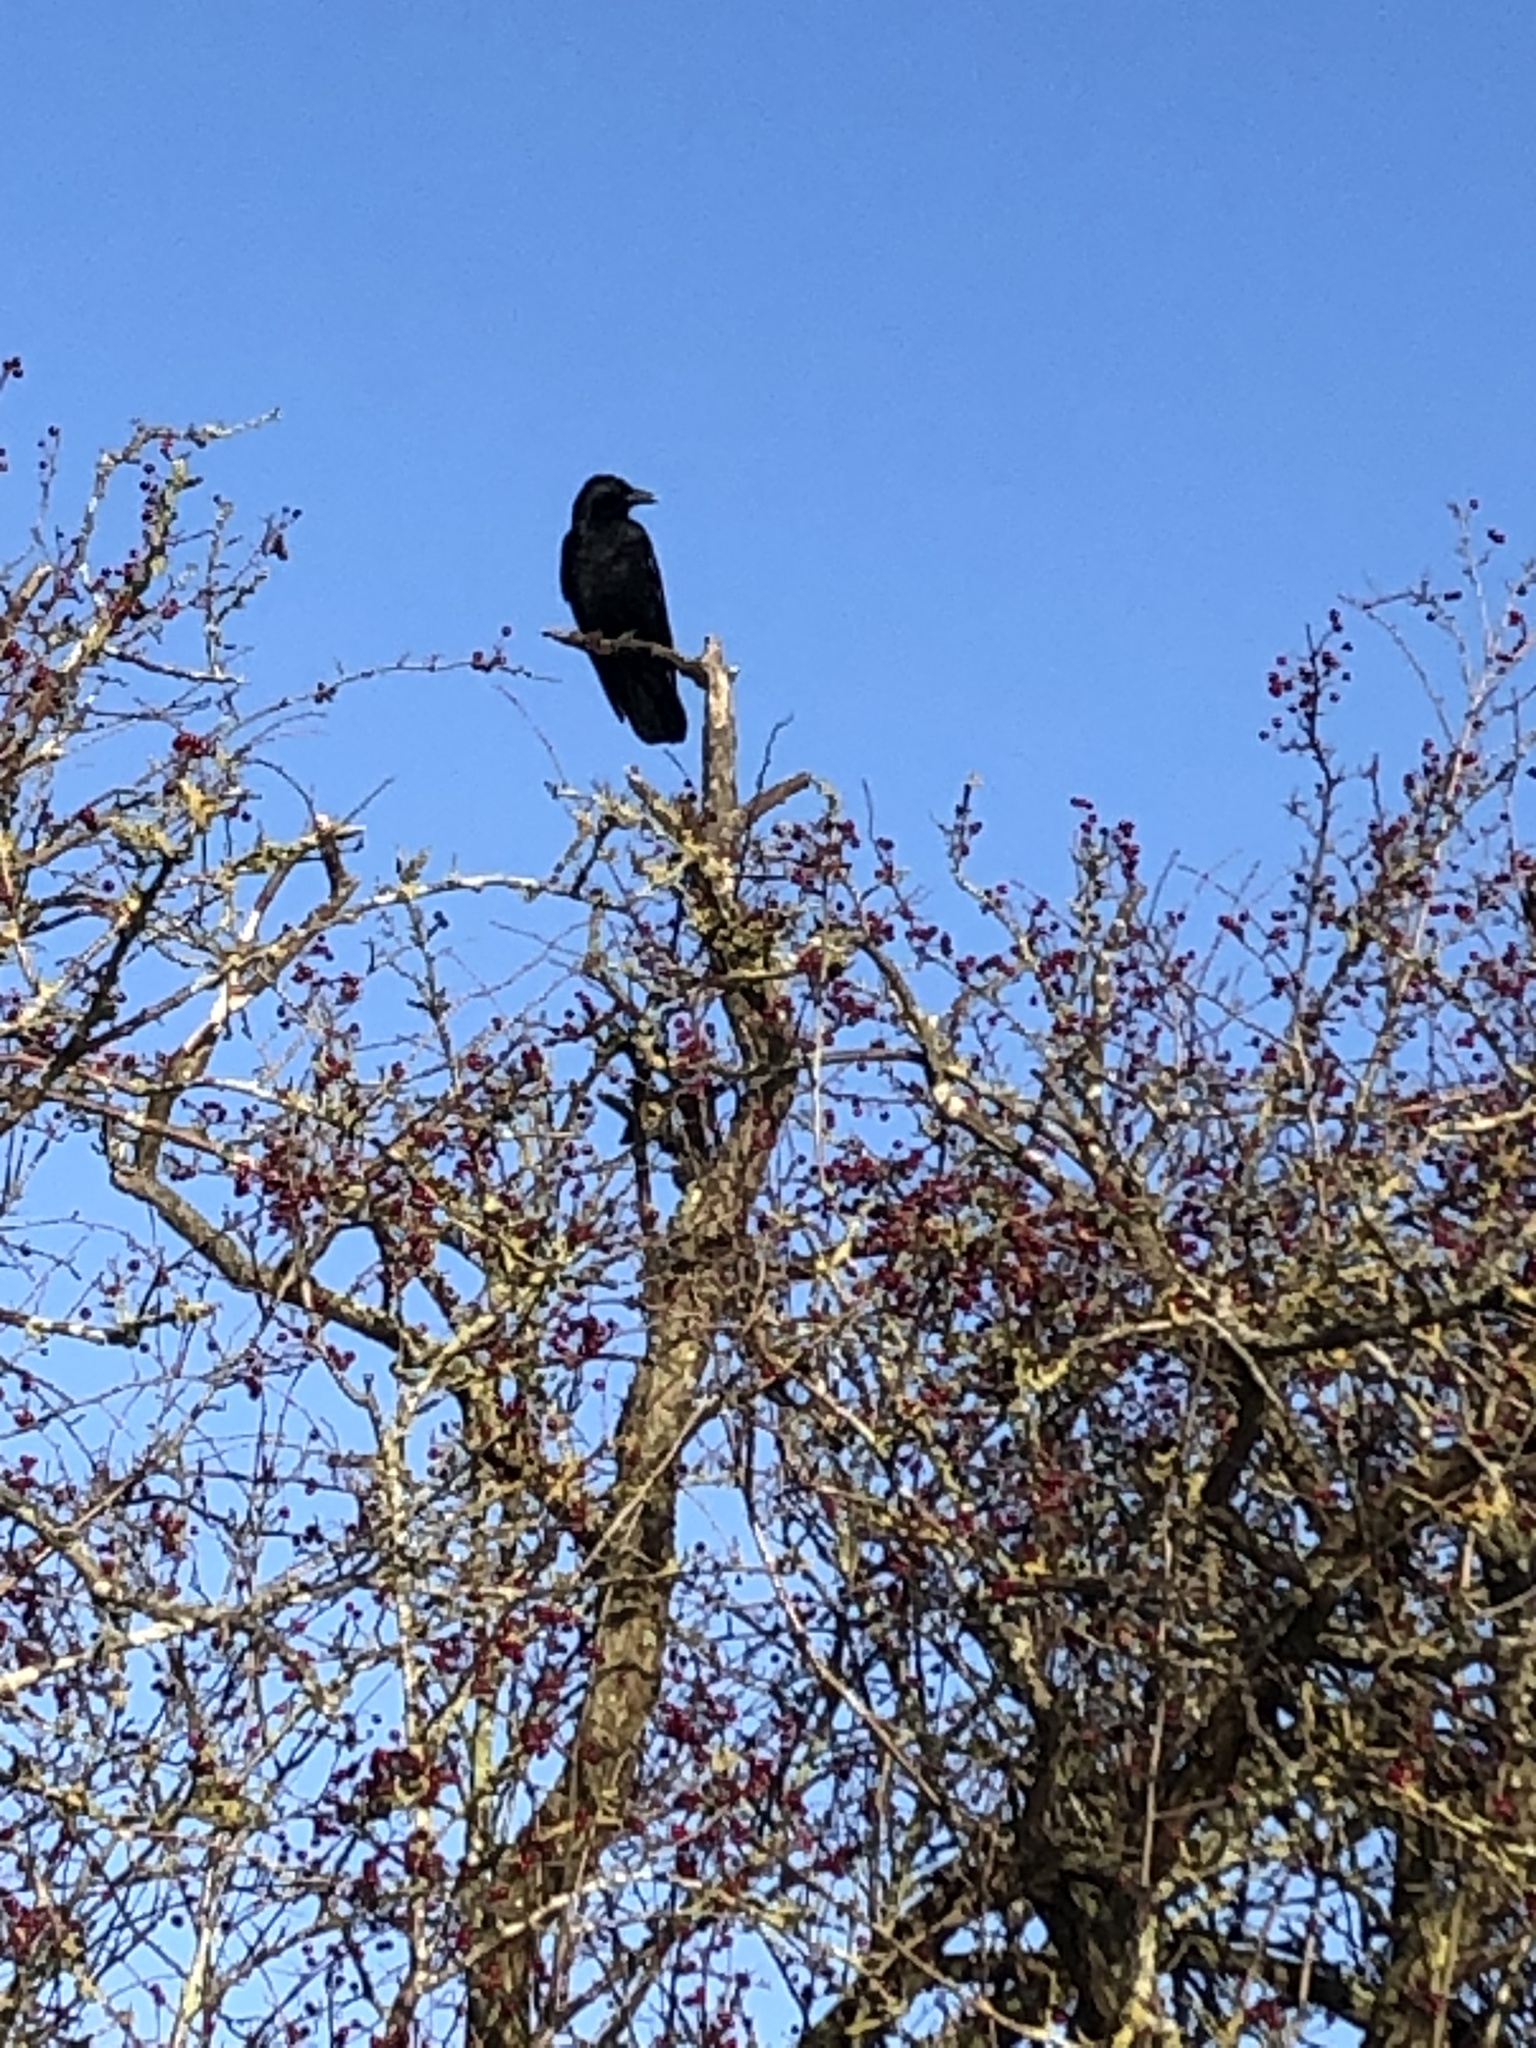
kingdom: Animalia
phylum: Chordata
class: Aves
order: Passeriformes
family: Corvidae
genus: Corvus
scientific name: Corvus corone
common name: Carrion crow
